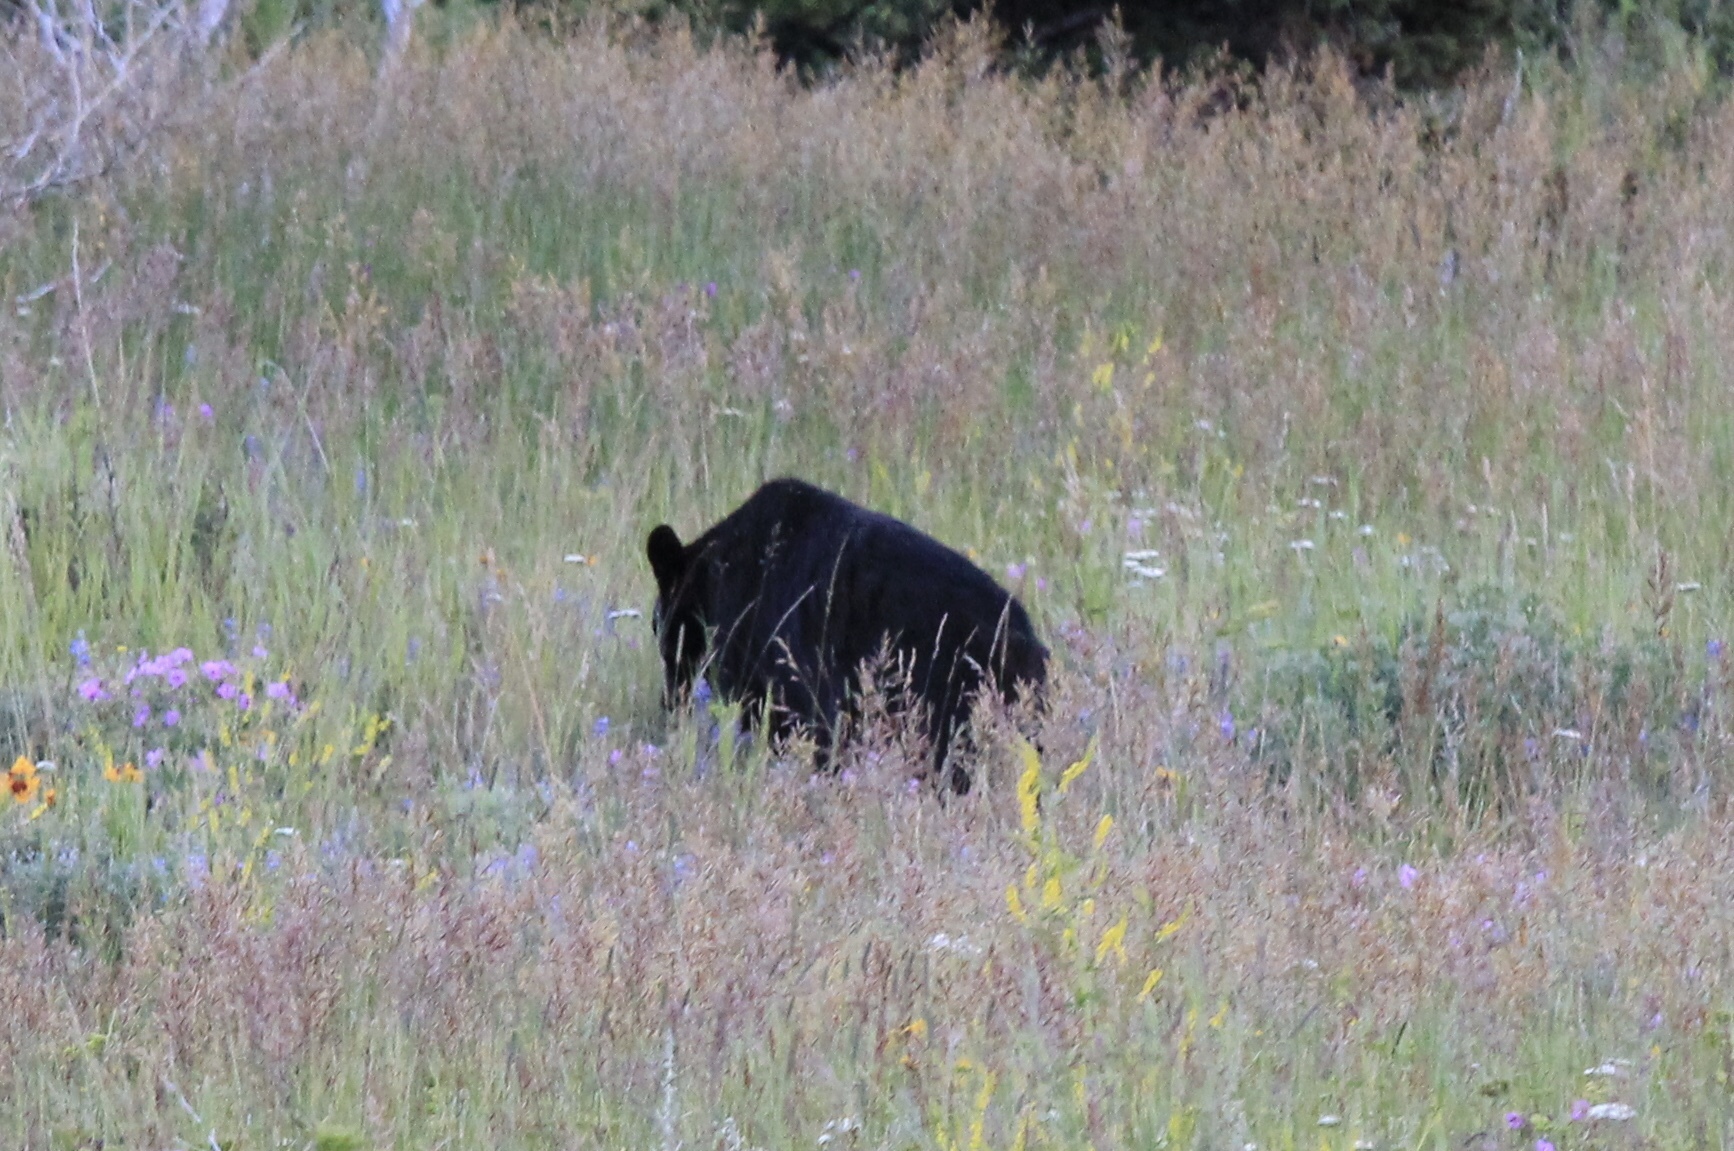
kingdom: Animalia
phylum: Chordata
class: Mammalia
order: Carnivora
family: Ursidae
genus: Ursus
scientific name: Ursus americanus
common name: American black bear
